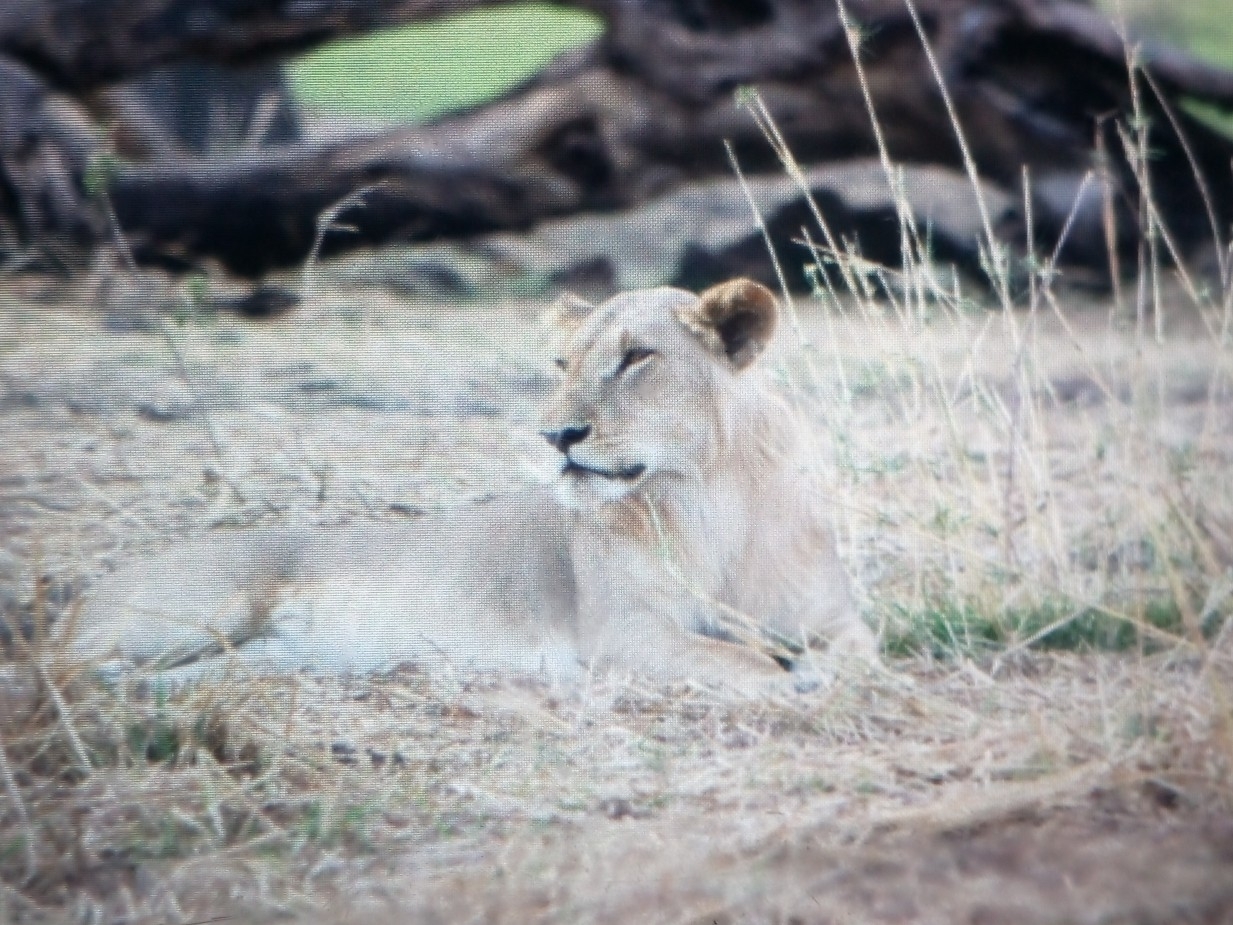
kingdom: Animalia
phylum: Chordata
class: Mammalia
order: Carnivora
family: Felidae
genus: Panthera
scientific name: Panthera leo
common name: Lion
